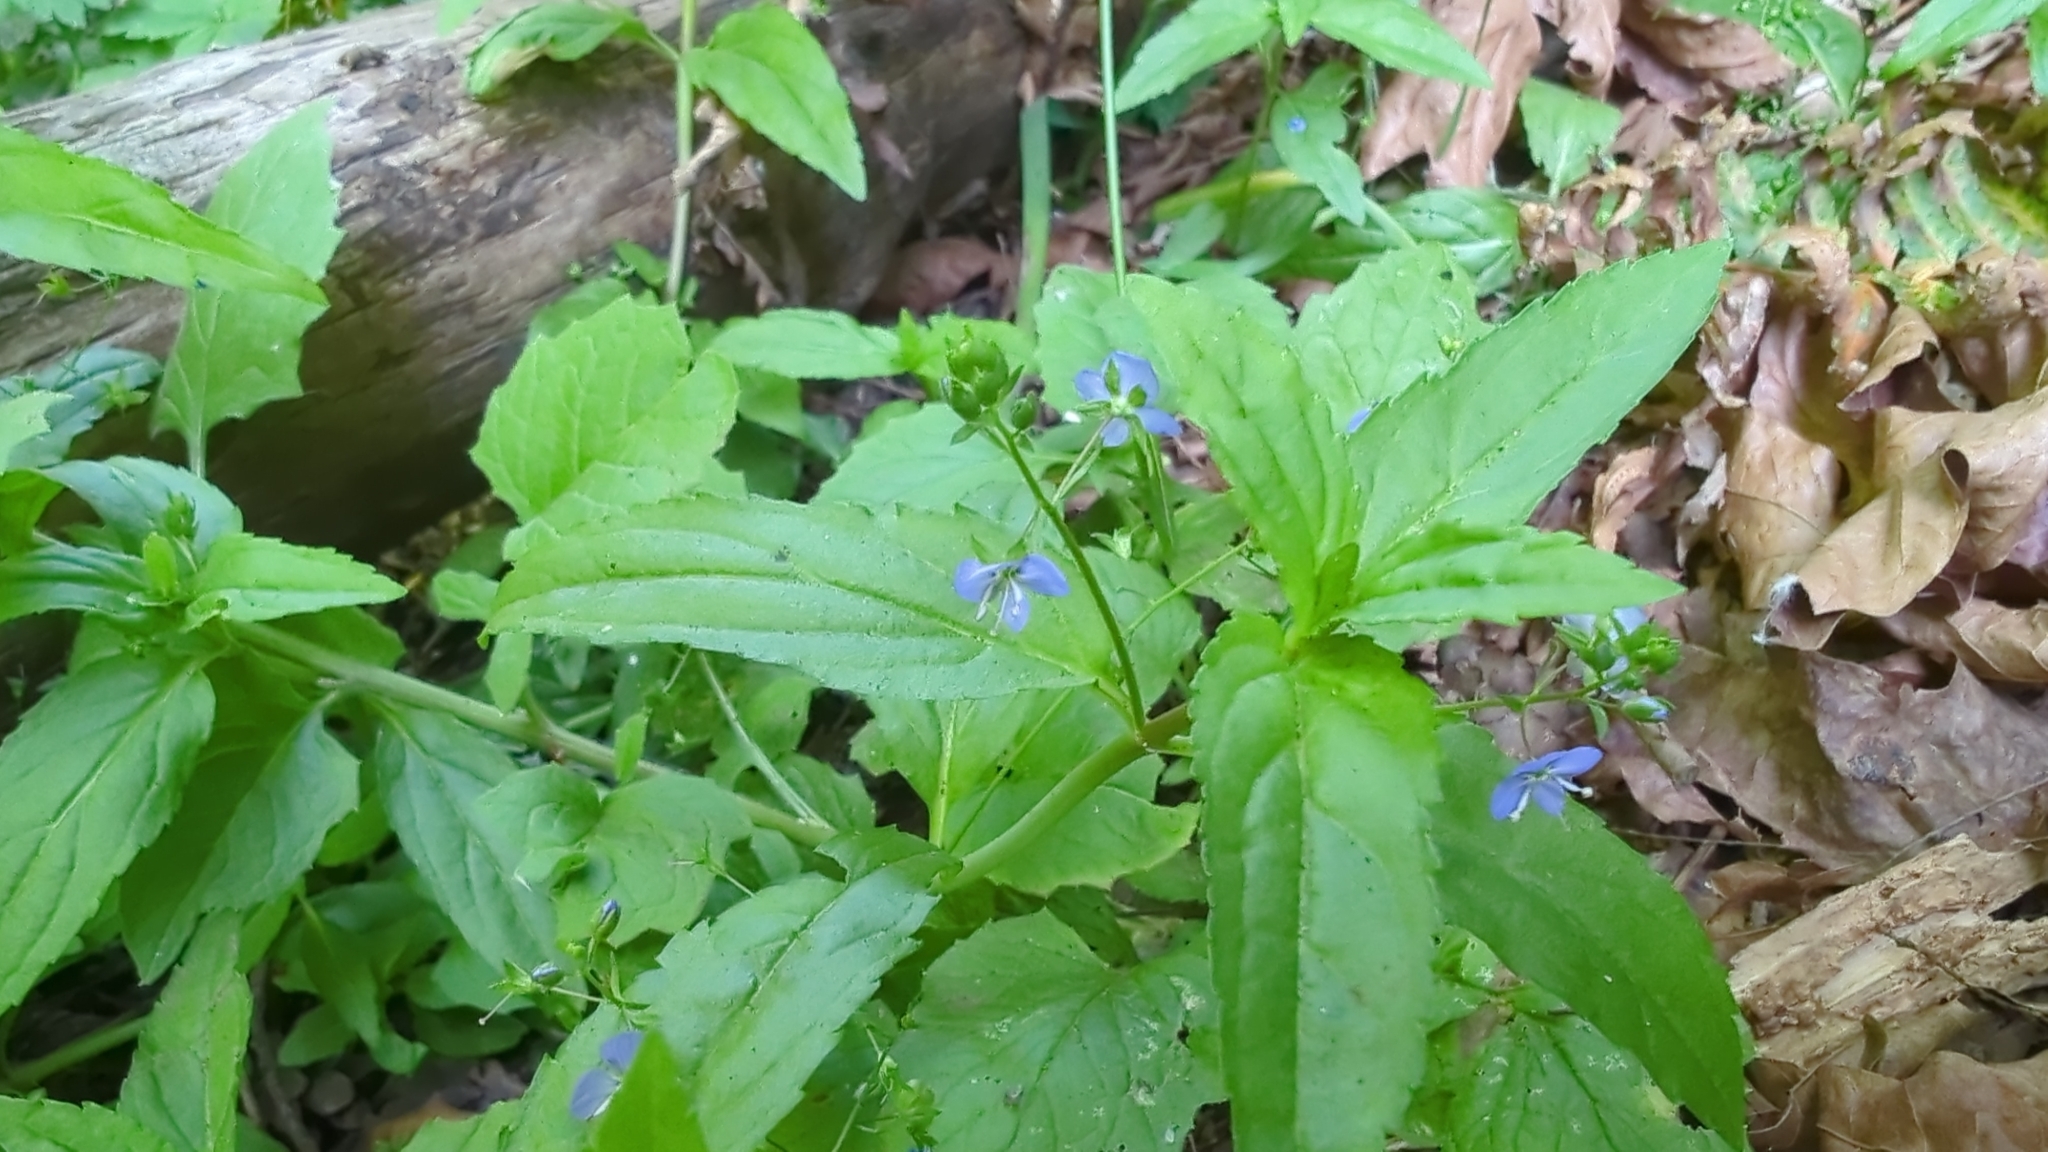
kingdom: Plantae
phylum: Tracheophyta
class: Magnoliopsida
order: Lamiales
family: Plantaginaceae
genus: Veronica
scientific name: Veronica americana
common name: American brooklime
